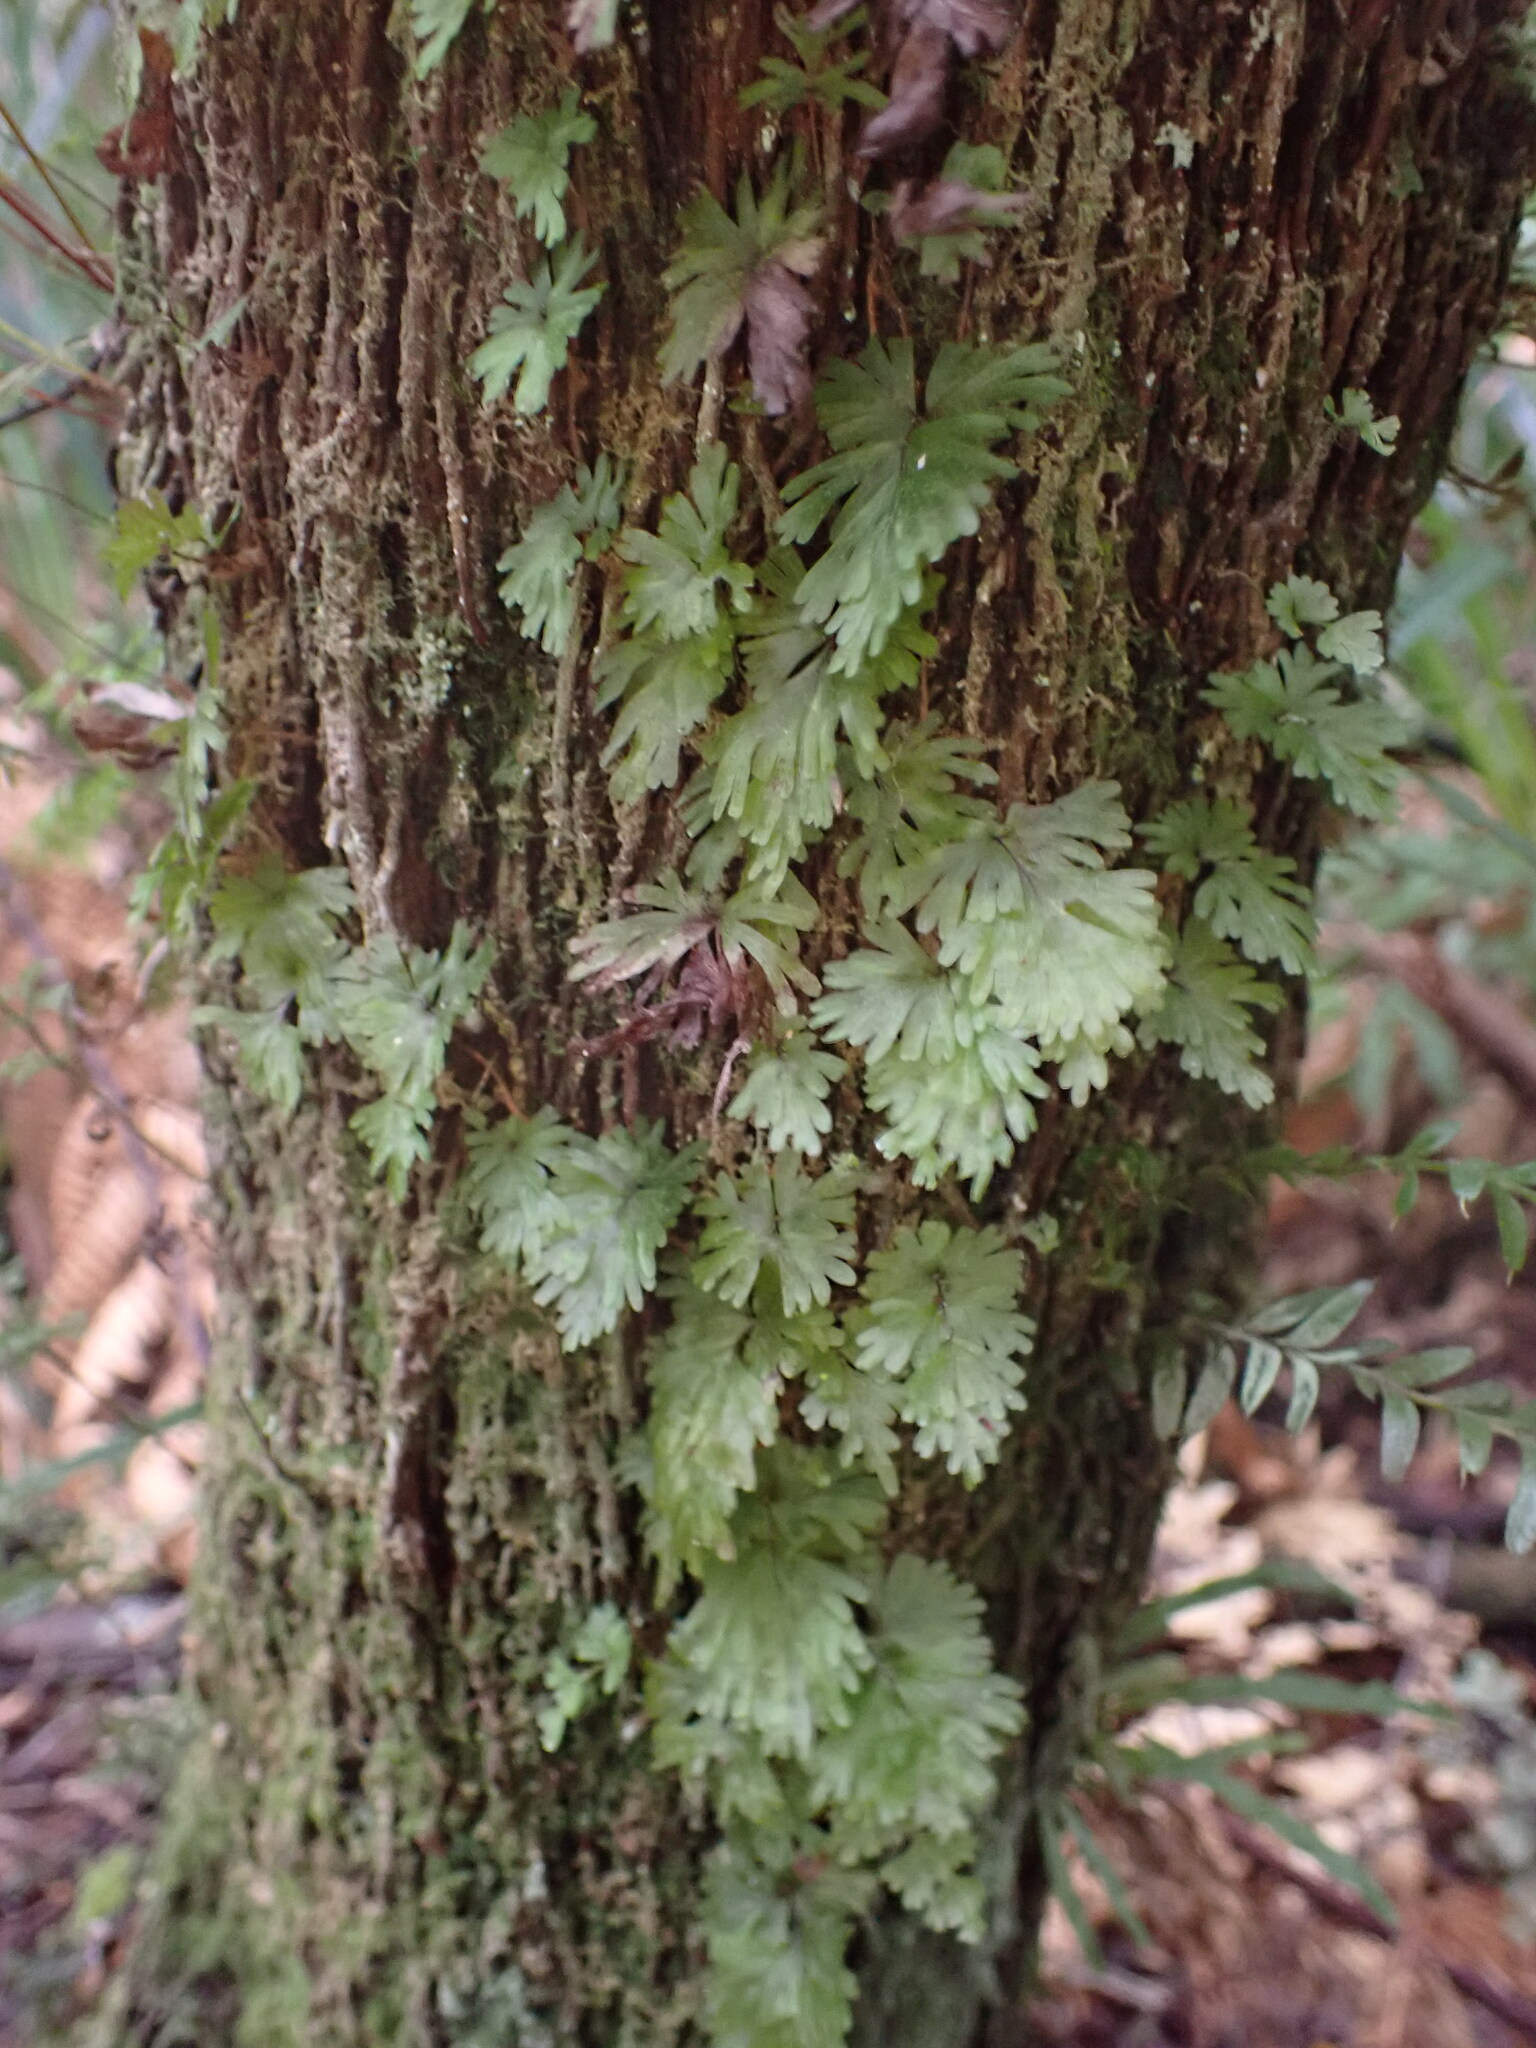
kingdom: Plantae
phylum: Tracheophyta
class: Polypodiopsida
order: Hymenophyllales
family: Hymenophyllaceae
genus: Hymenophyllum
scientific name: Hymenophyllum flabellatum
